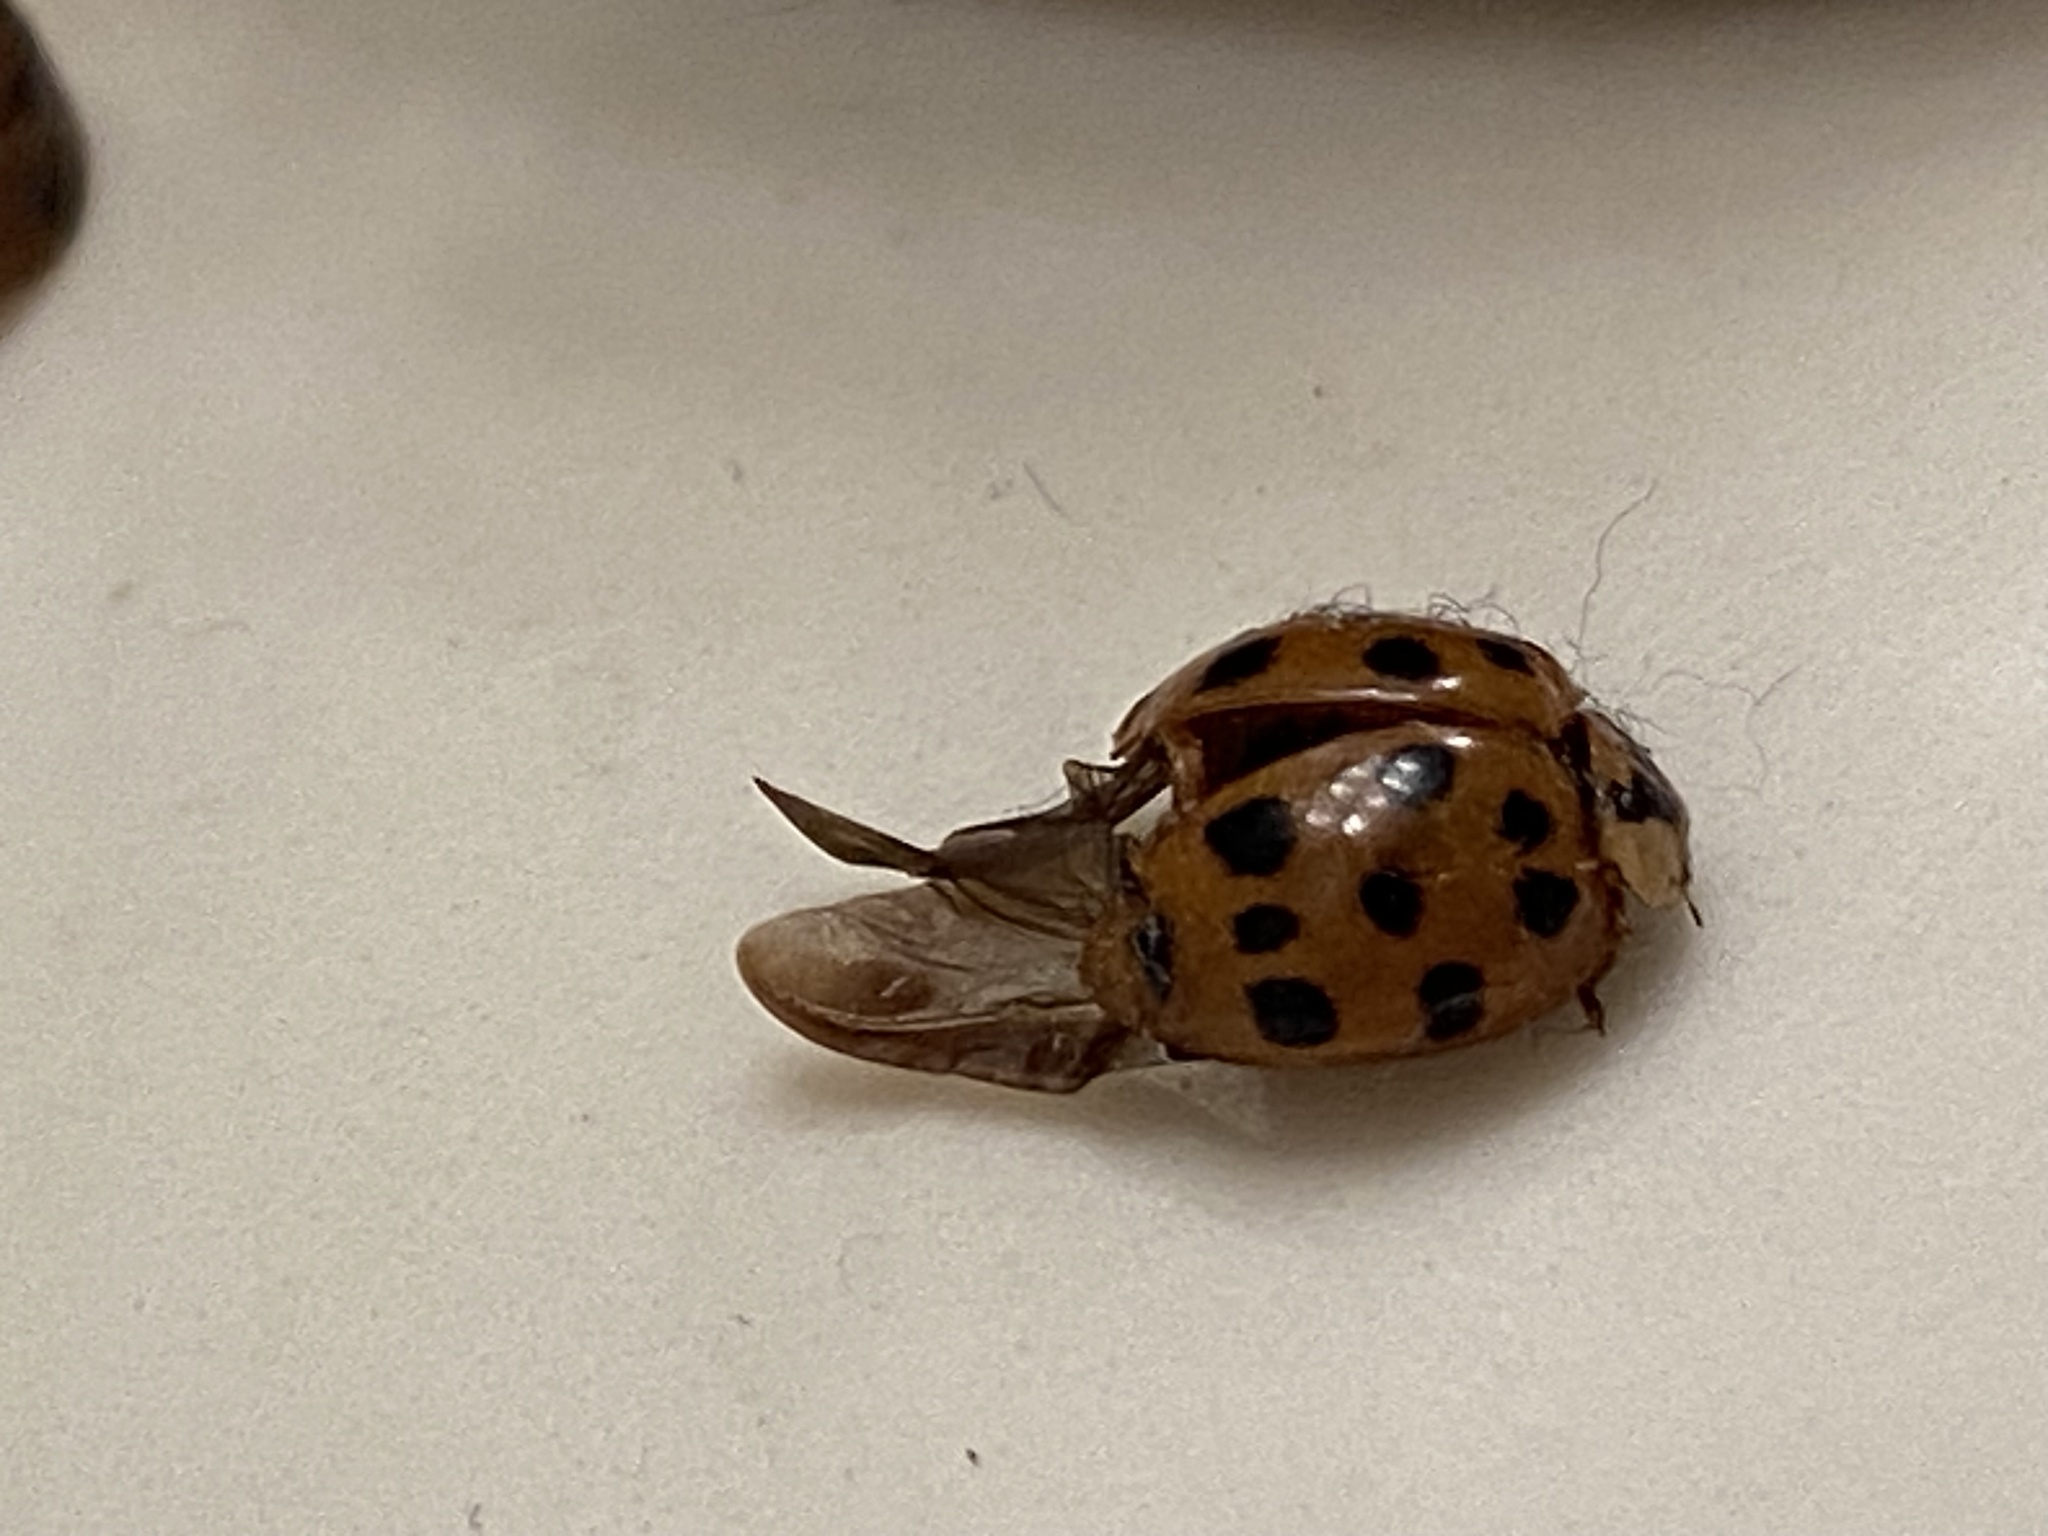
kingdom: Animalia
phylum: Arthropoda
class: Insecta
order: Coleoptera
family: Coccinellidae
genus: Harmonia
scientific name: Harmonia axyridis
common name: Harlequin ladybird
